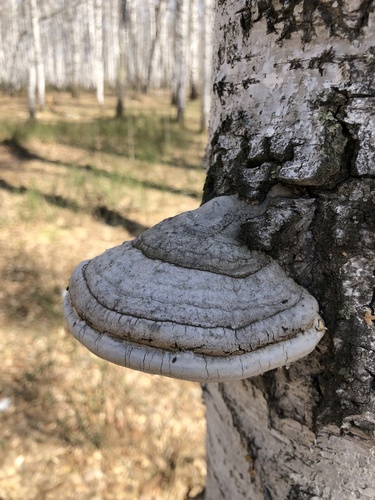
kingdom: Fungi
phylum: Basidiomycota
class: Agaricomycetes
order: Polyporales
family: Polyporaceae
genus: Fomes
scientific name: Fomes fomentarius
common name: Hoof fungus
